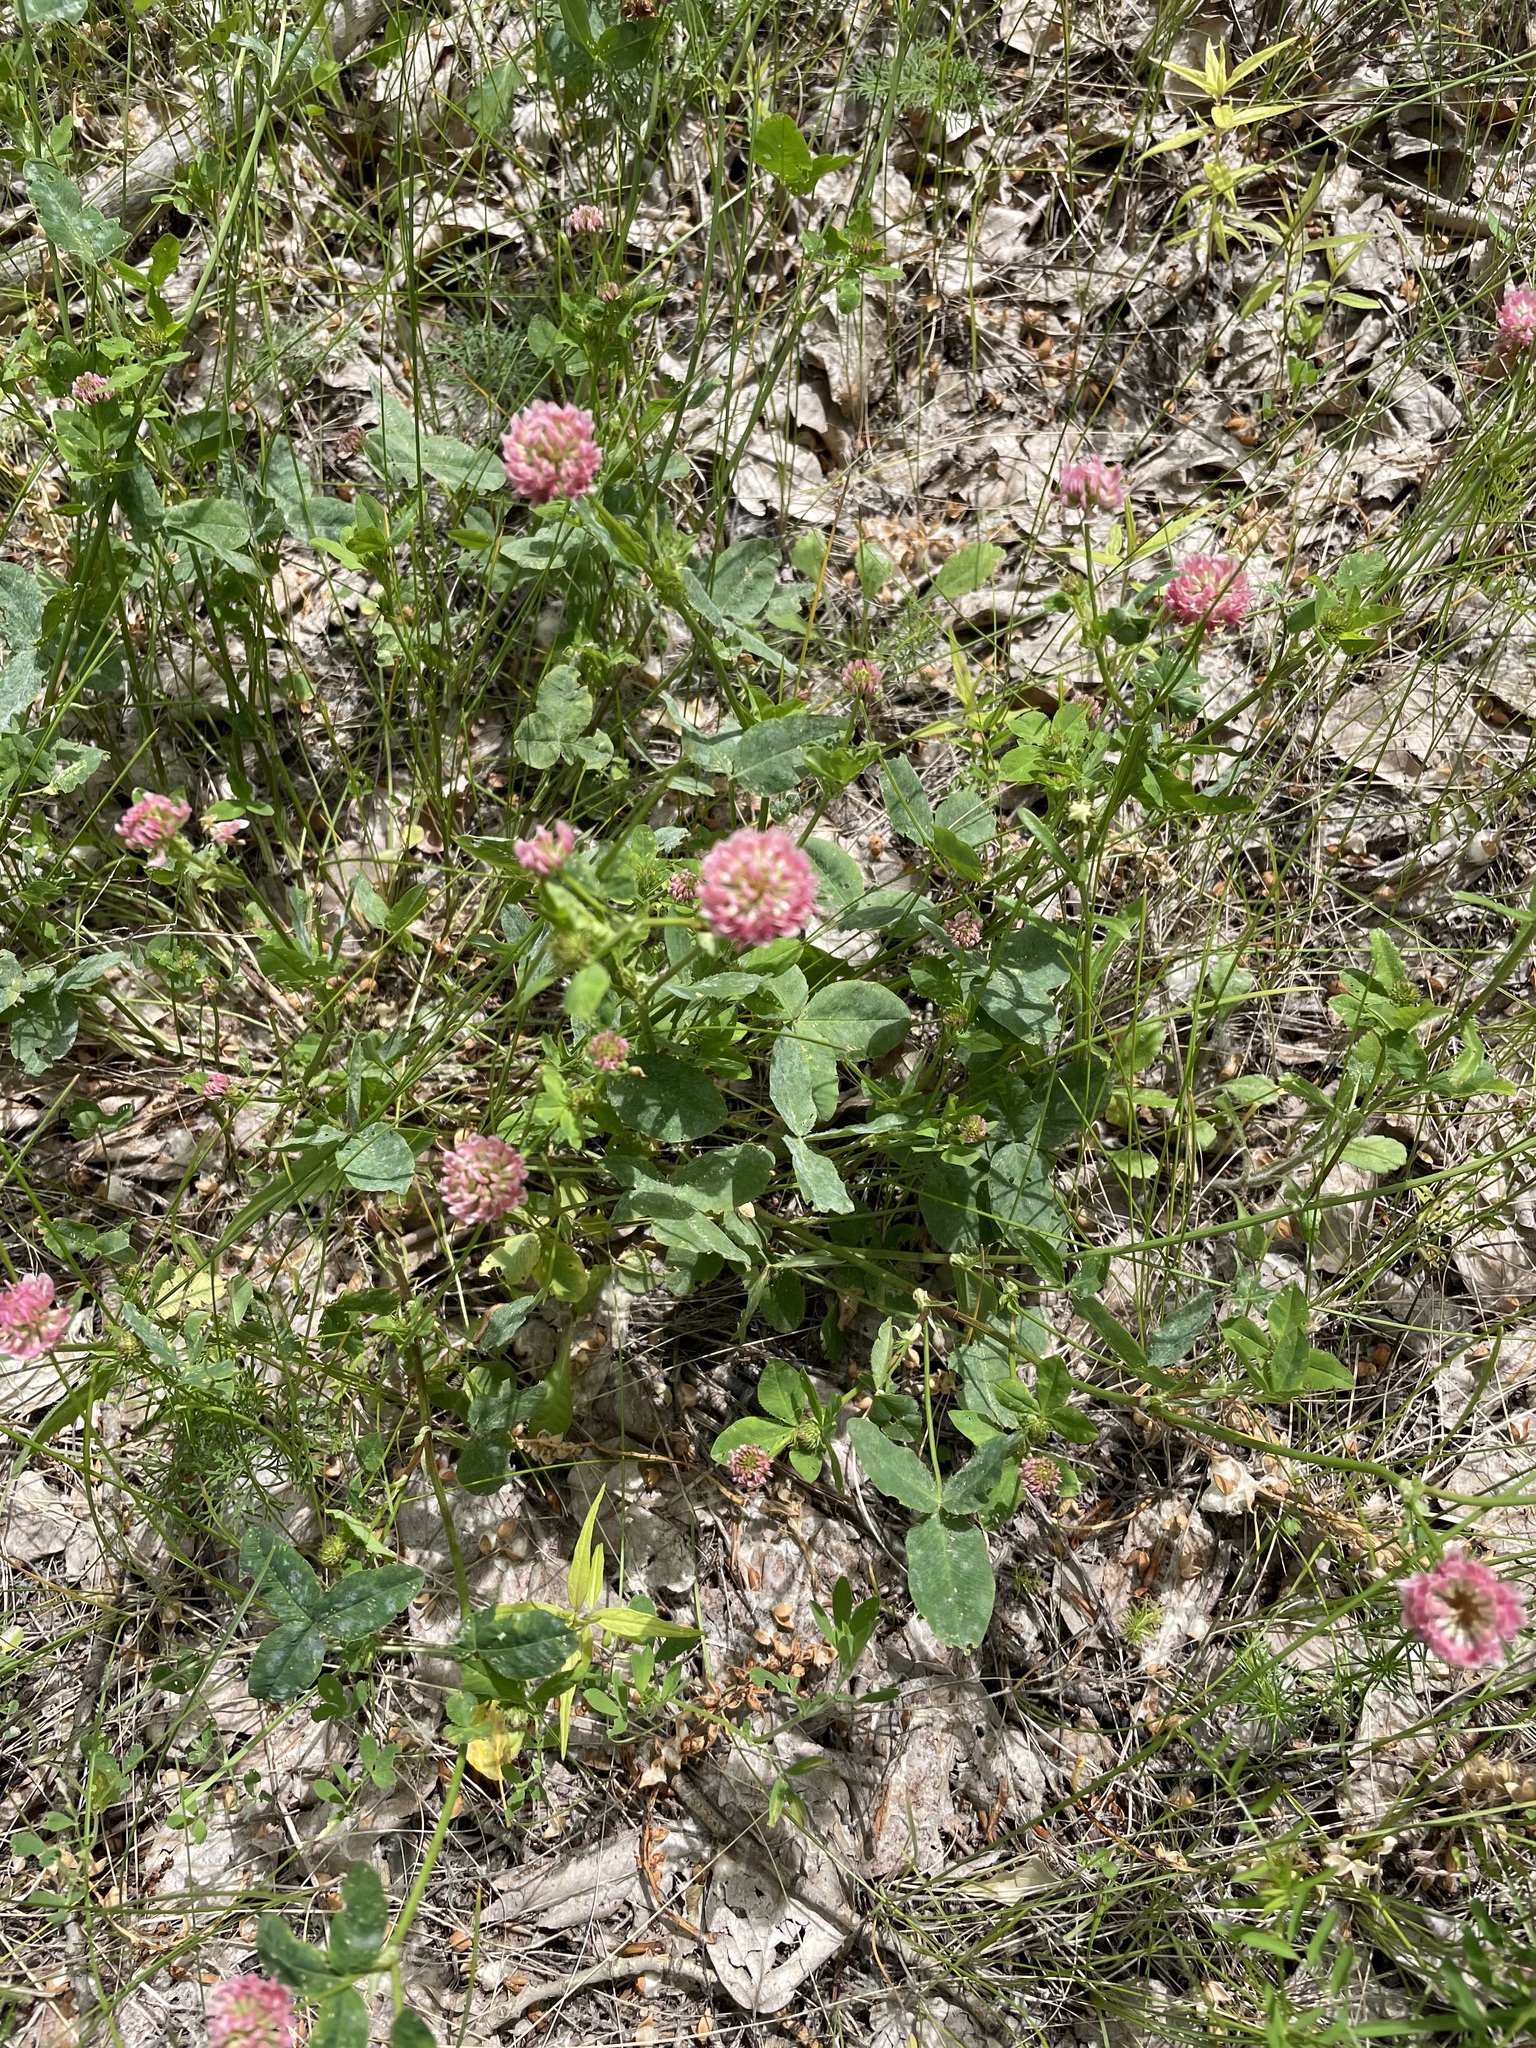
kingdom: Plantae
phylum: Tracheophyta
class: Magnoliopsida
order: Fabales
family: Fabaceae
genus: Trifolium
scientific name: Trifolium hybridum
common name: Alsike clover
